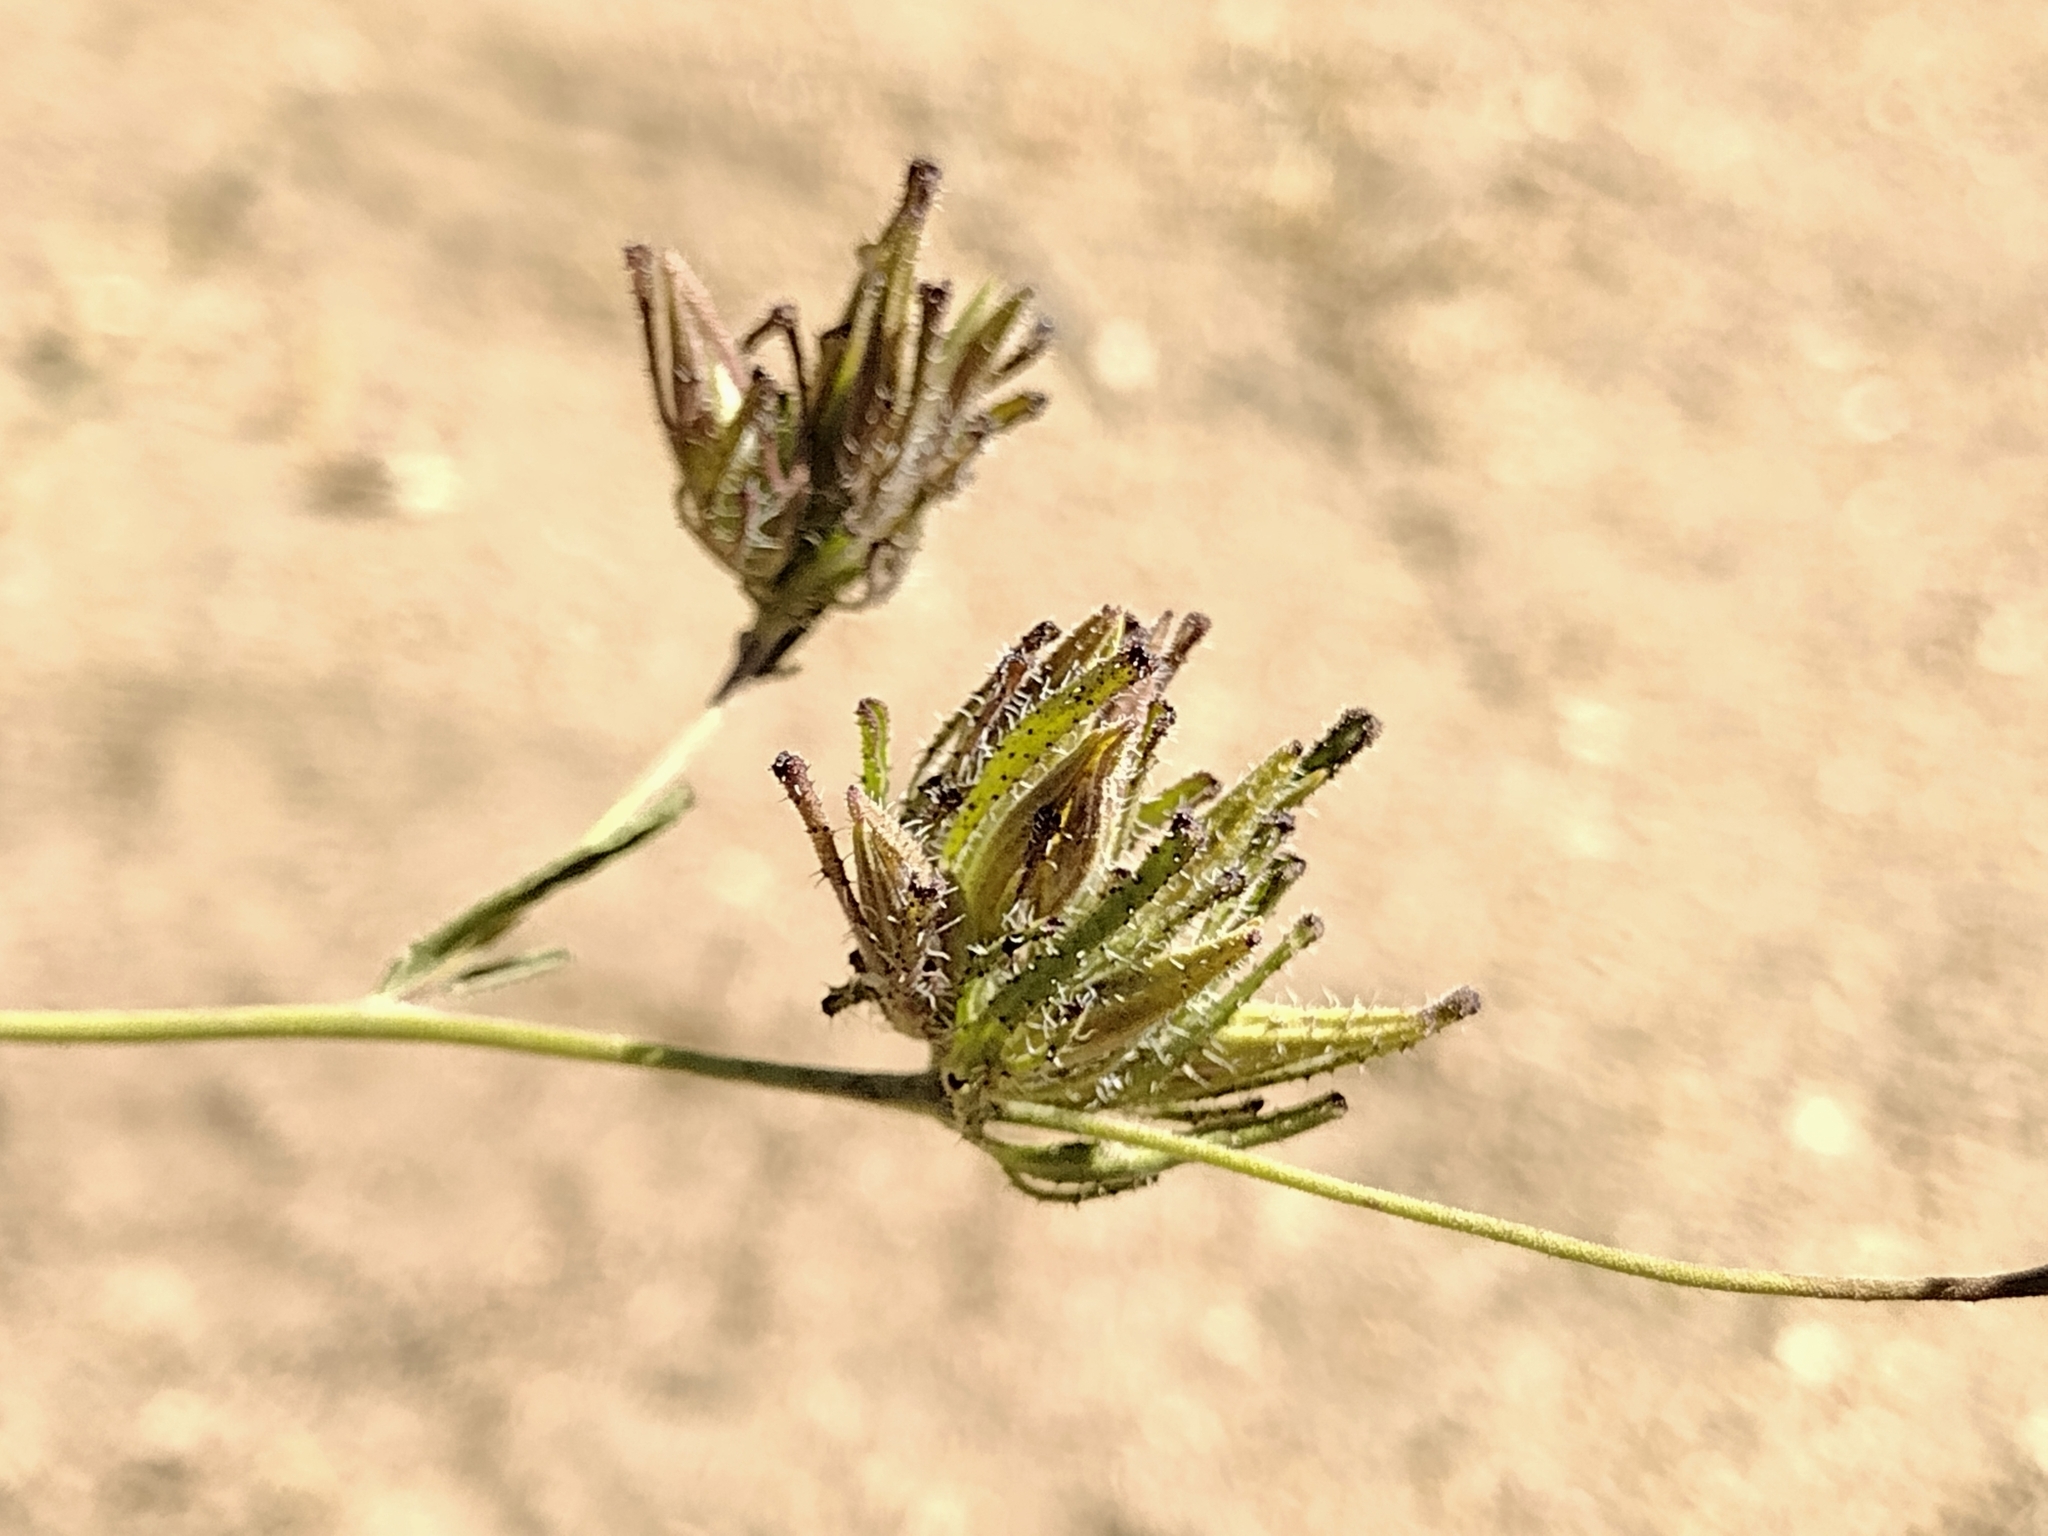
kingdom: Plantae
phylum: Tracheophyta
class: Magnoliopsida
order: Lamiales
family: Orobanchaceae
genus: Cordylanthus
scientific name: Cordylanthus rigidus
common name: Stiff-branch bird's-beak
